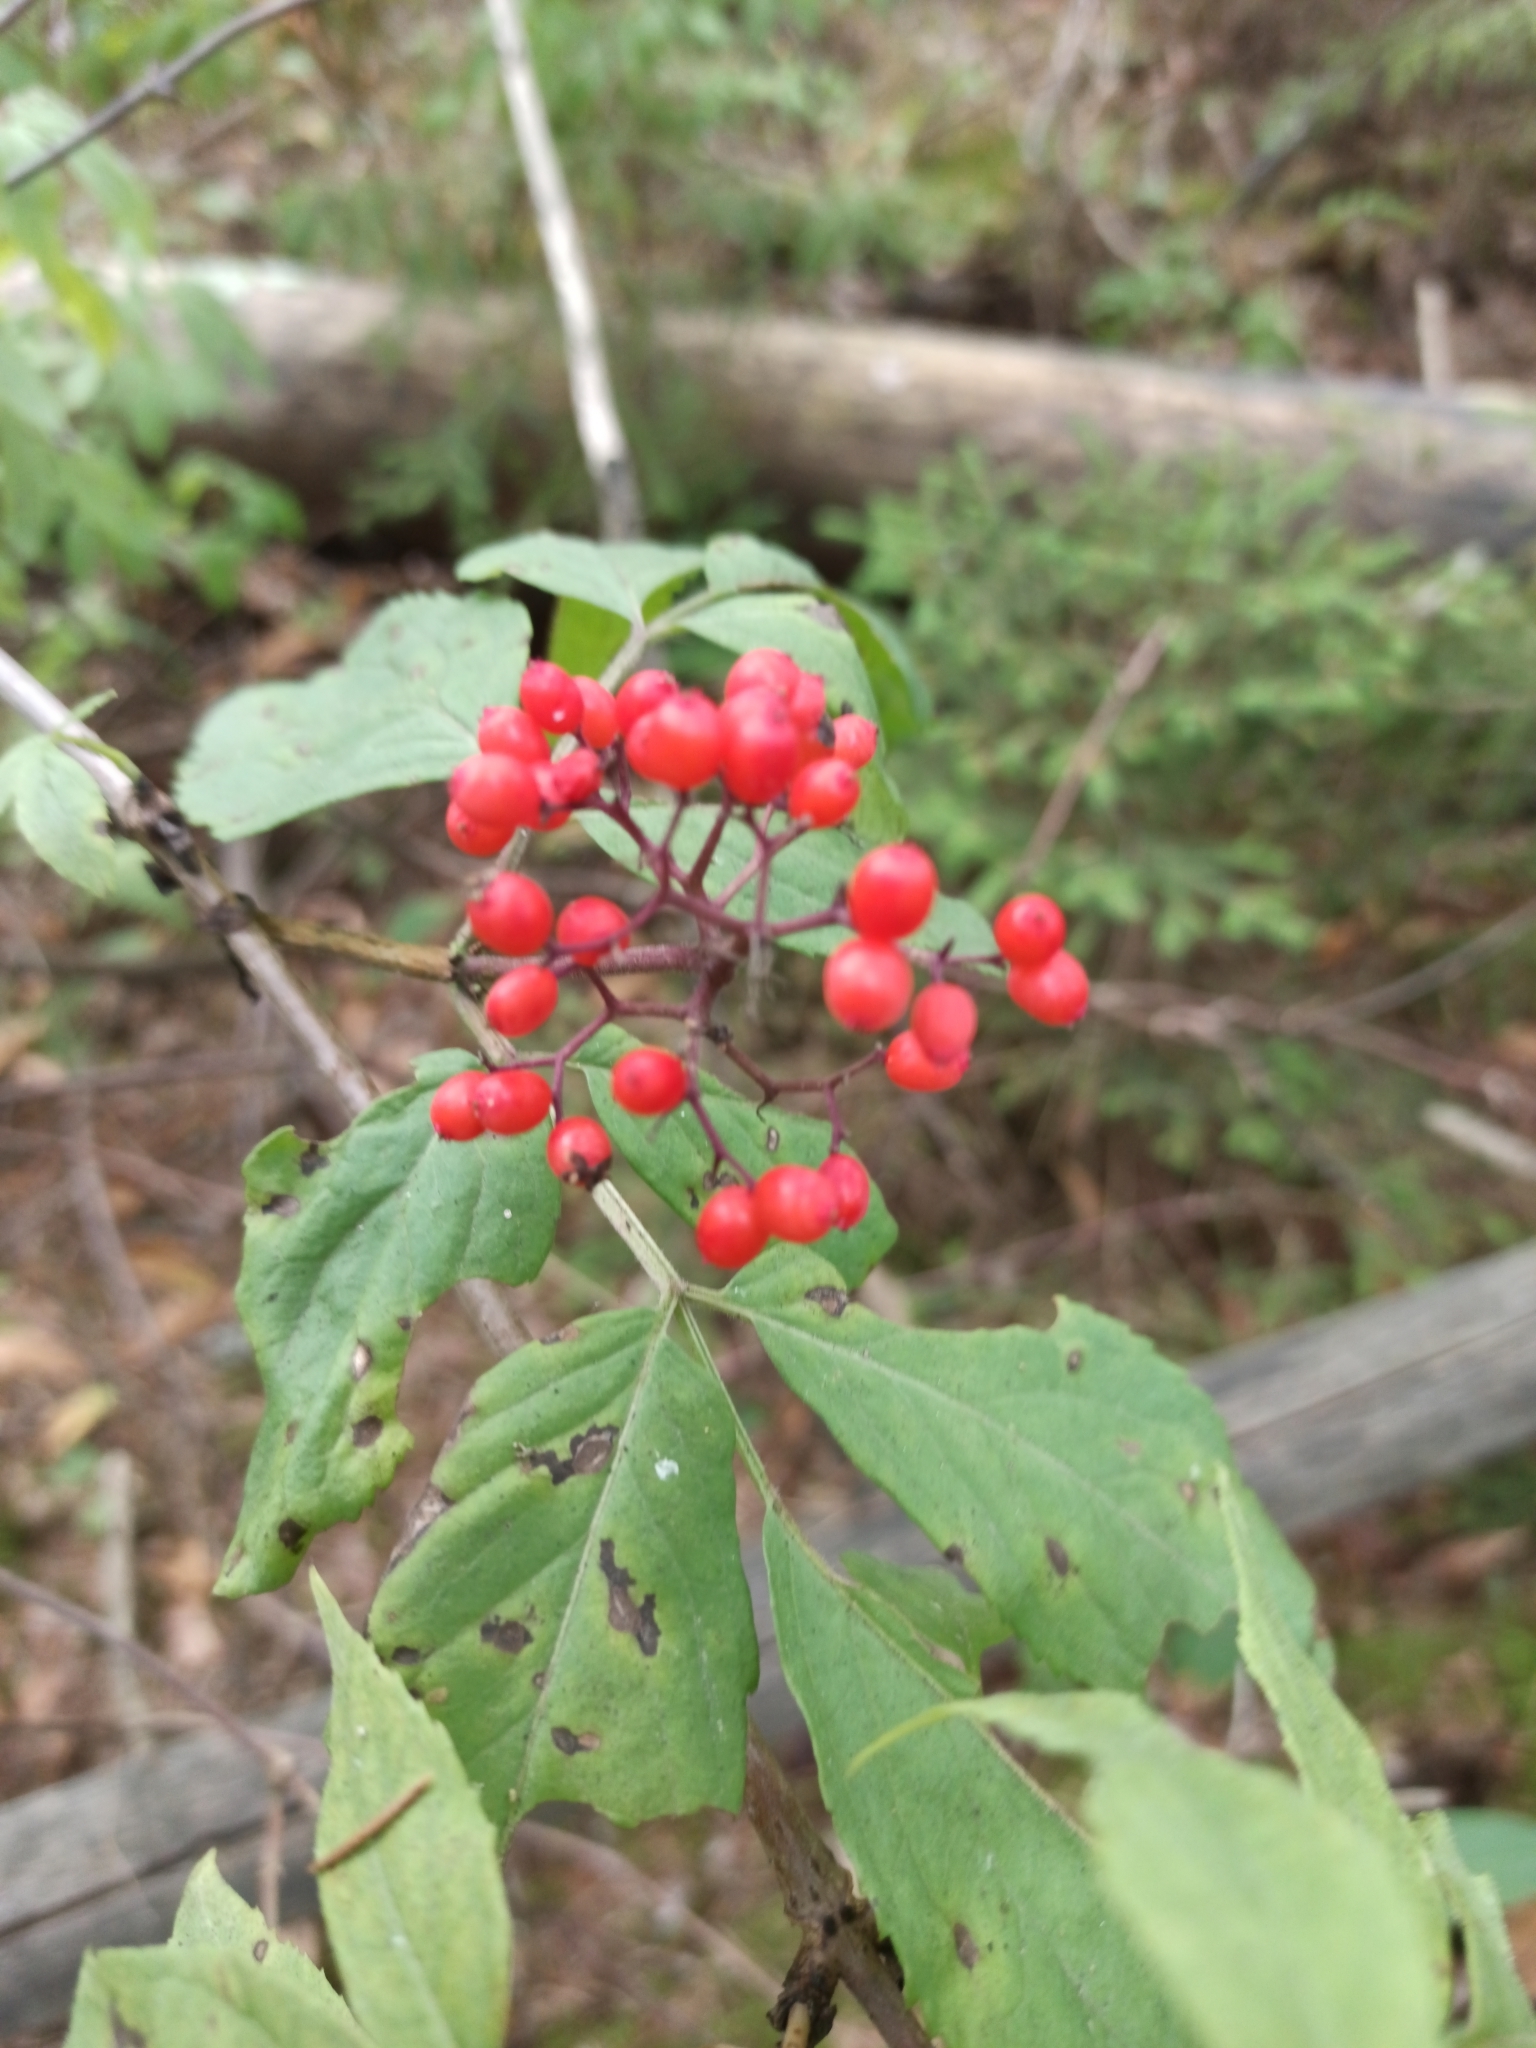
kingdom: Plantae
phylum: Tracheophyta
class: Magnoliopsida
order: Dipsacales
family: Viburnaceae
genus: Sambucus
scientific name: Sambucus racemosa
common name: Red-berried elder
